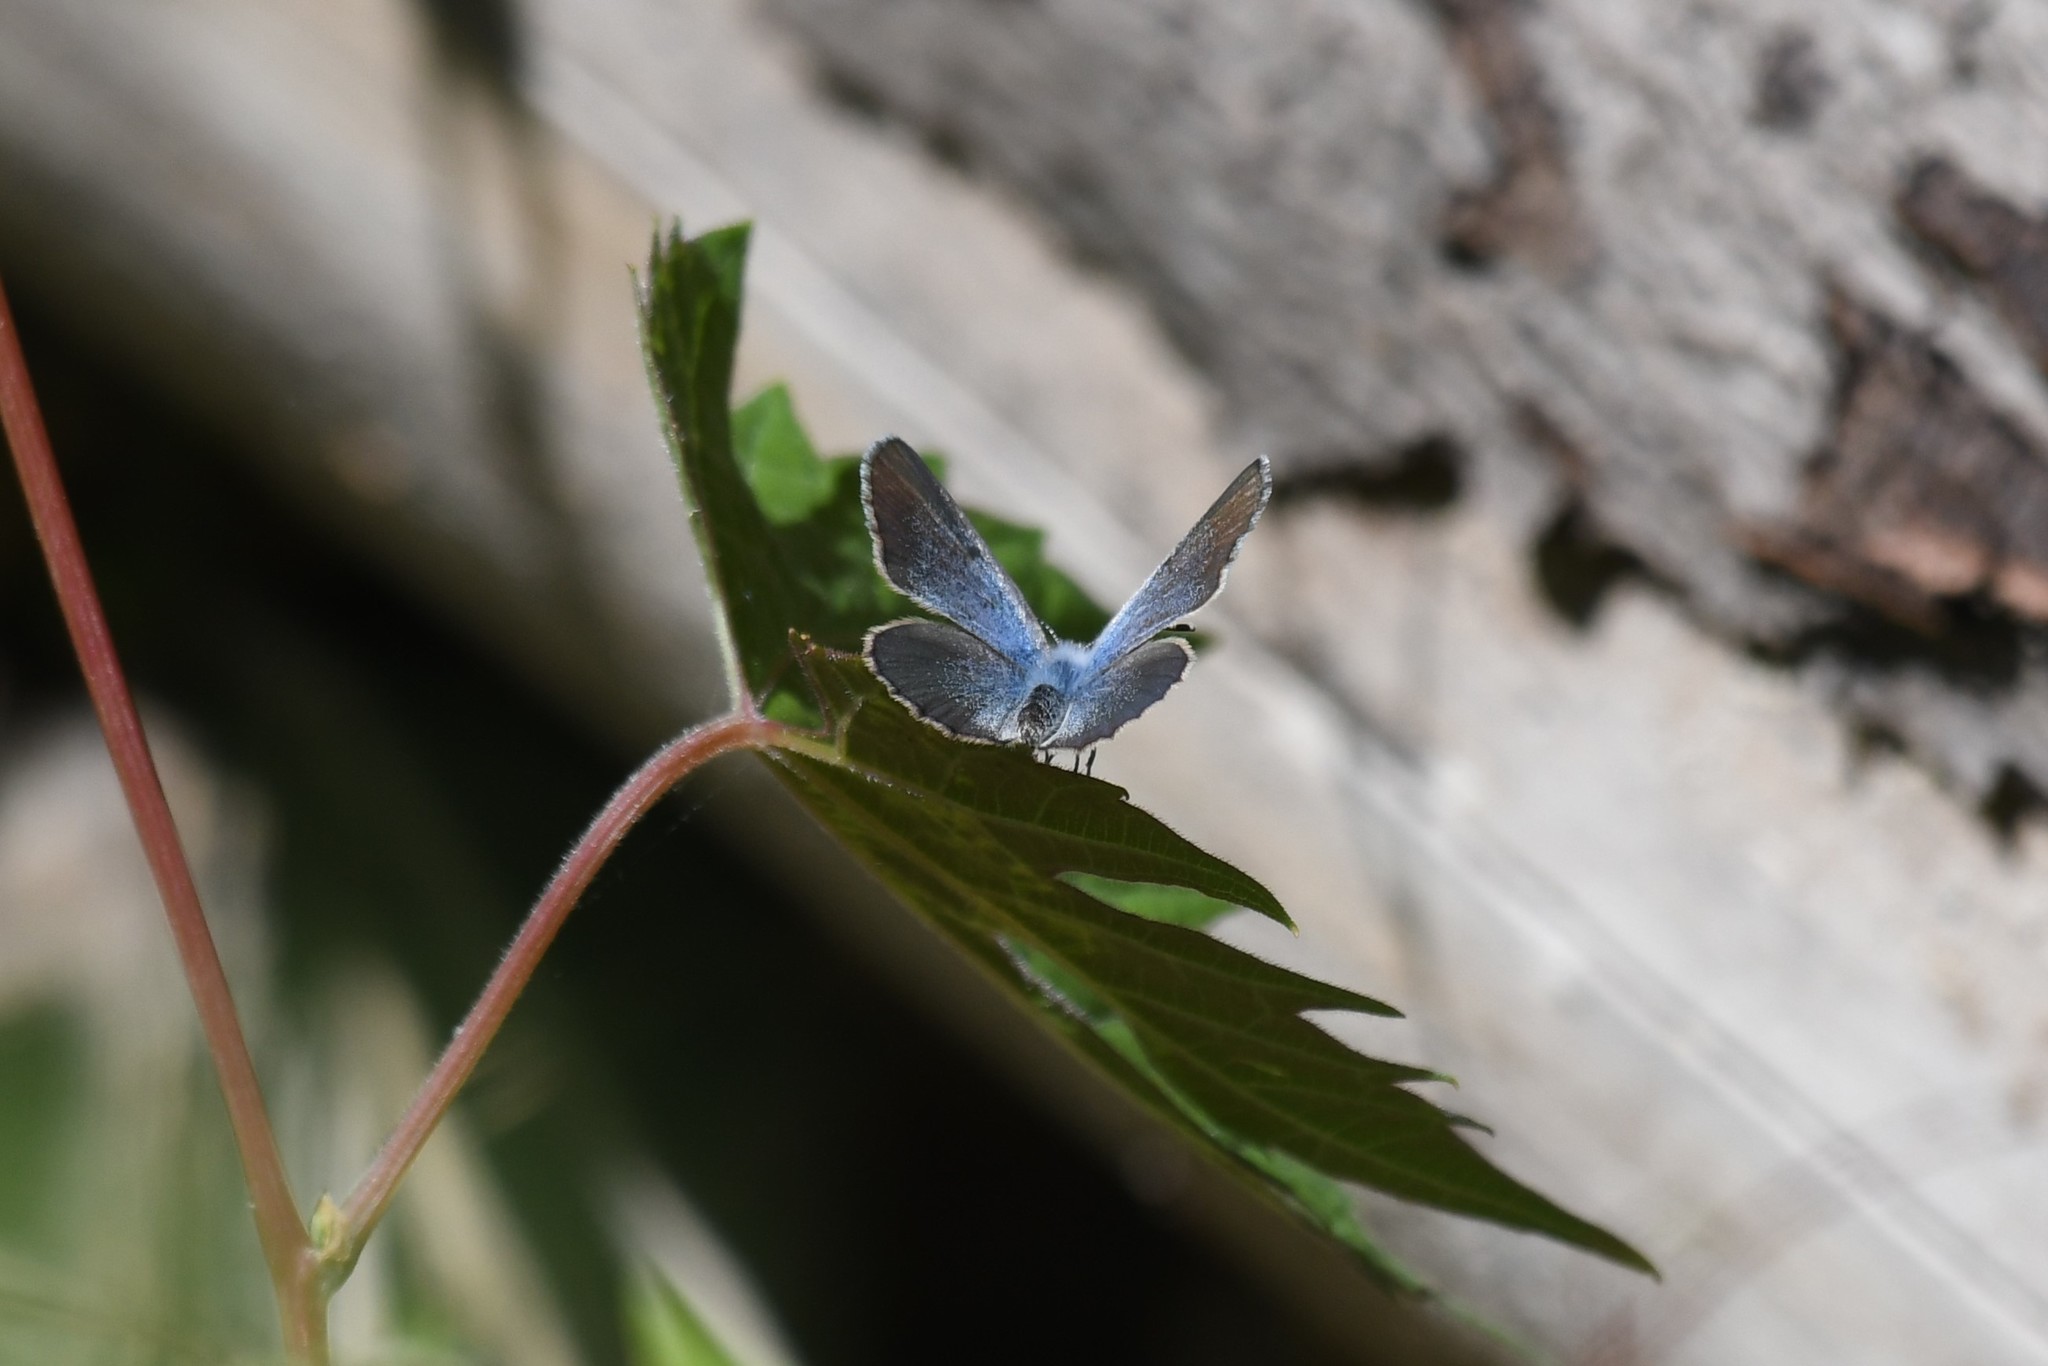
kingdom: Animalia
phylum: Arthropoda
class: Insecta
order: Lepidoptera
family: Lycaenidae
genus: Glaucopsyche
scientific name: Glaucopsyche lygdamus
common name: Silvery blue
